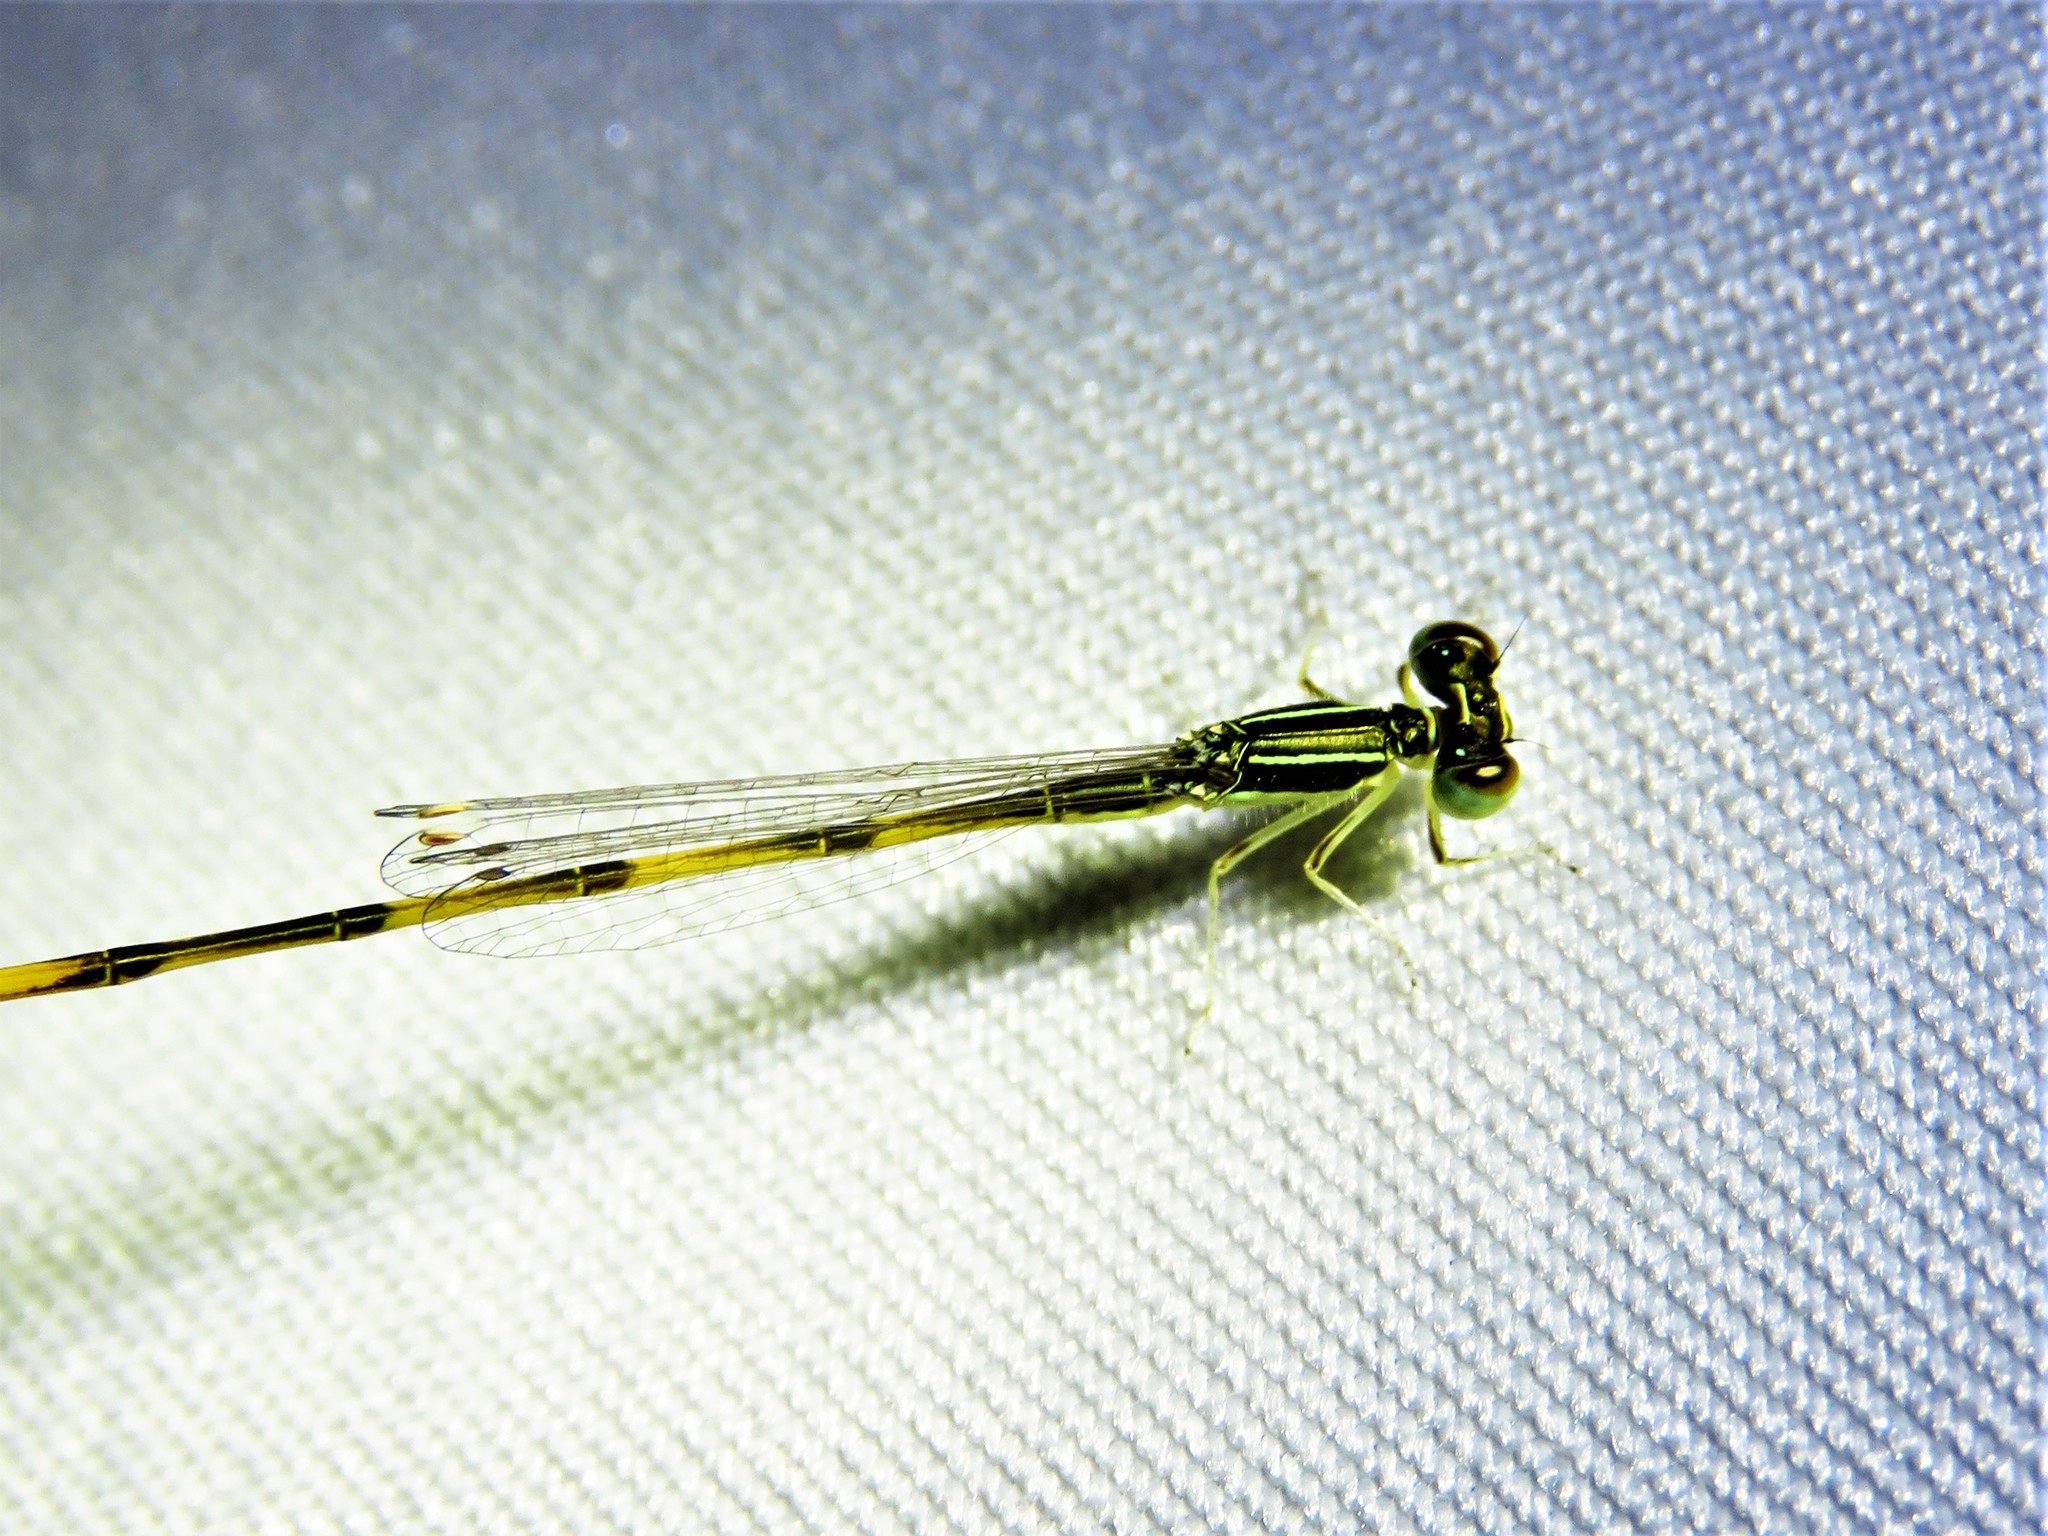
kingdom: Animalia
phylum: Arthropoda
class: Insecta
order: Odonata
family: Coenagrionidae
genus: Ischnura
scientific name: Ischnura hastata
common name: Citrine forktail
